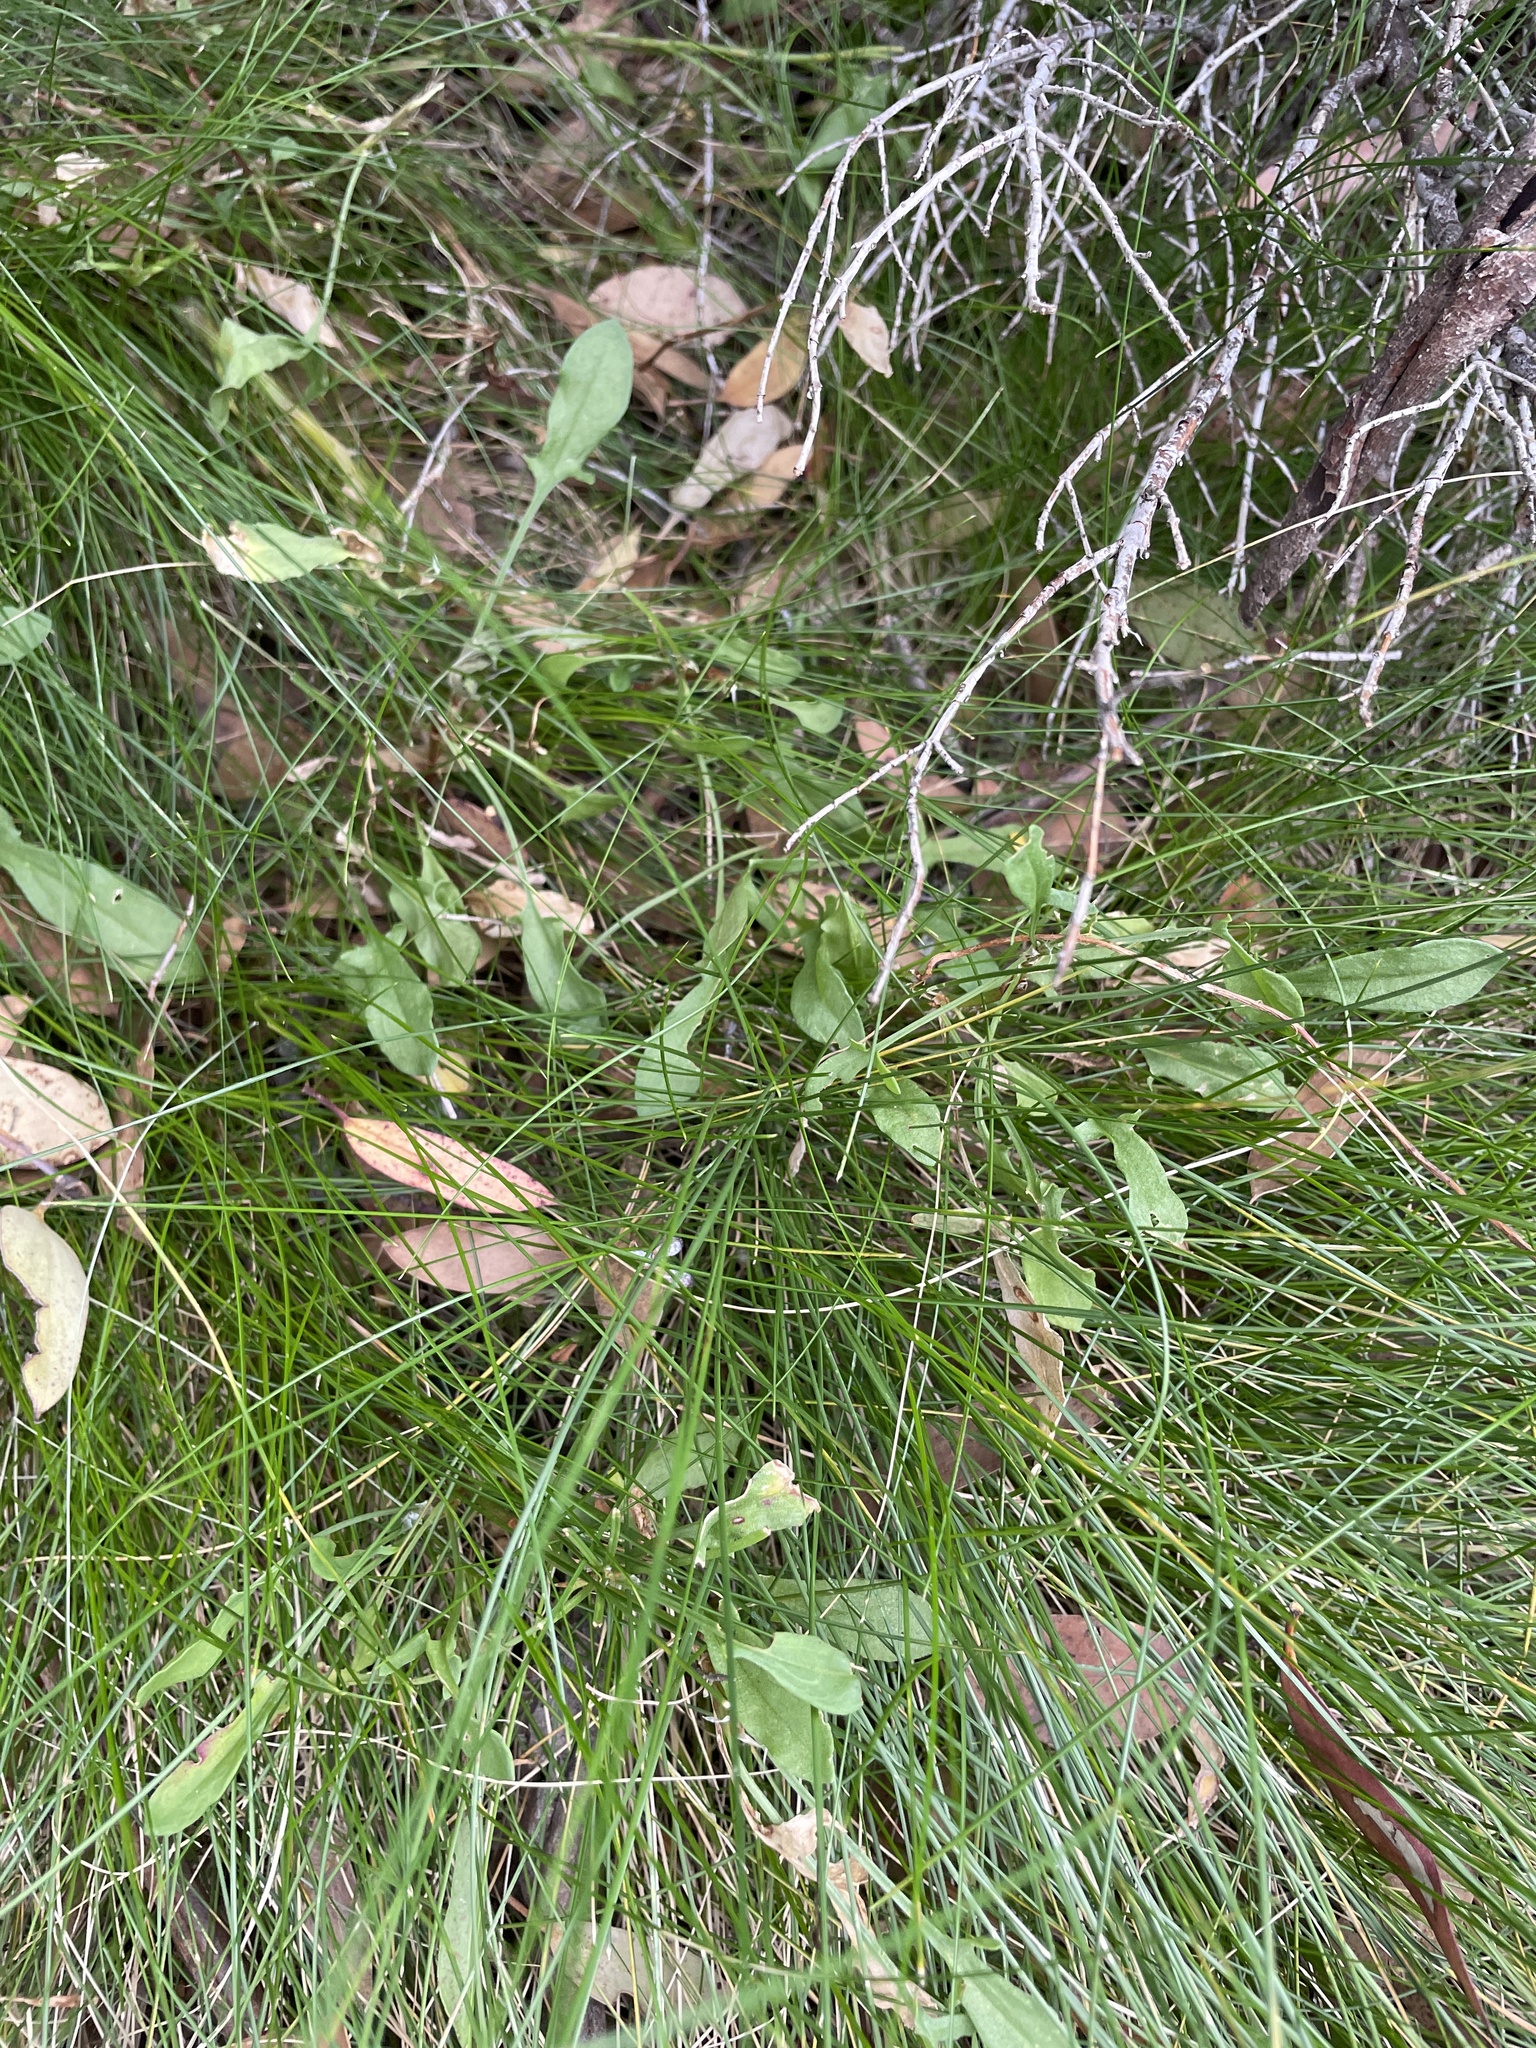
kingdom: Plantae
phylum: Tracheophyta
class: Magnoliopsida
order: Caryophyllales
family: Polygonaceae
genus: Rumex
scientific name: Rumex acetosella
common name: Common sheep sorrel
